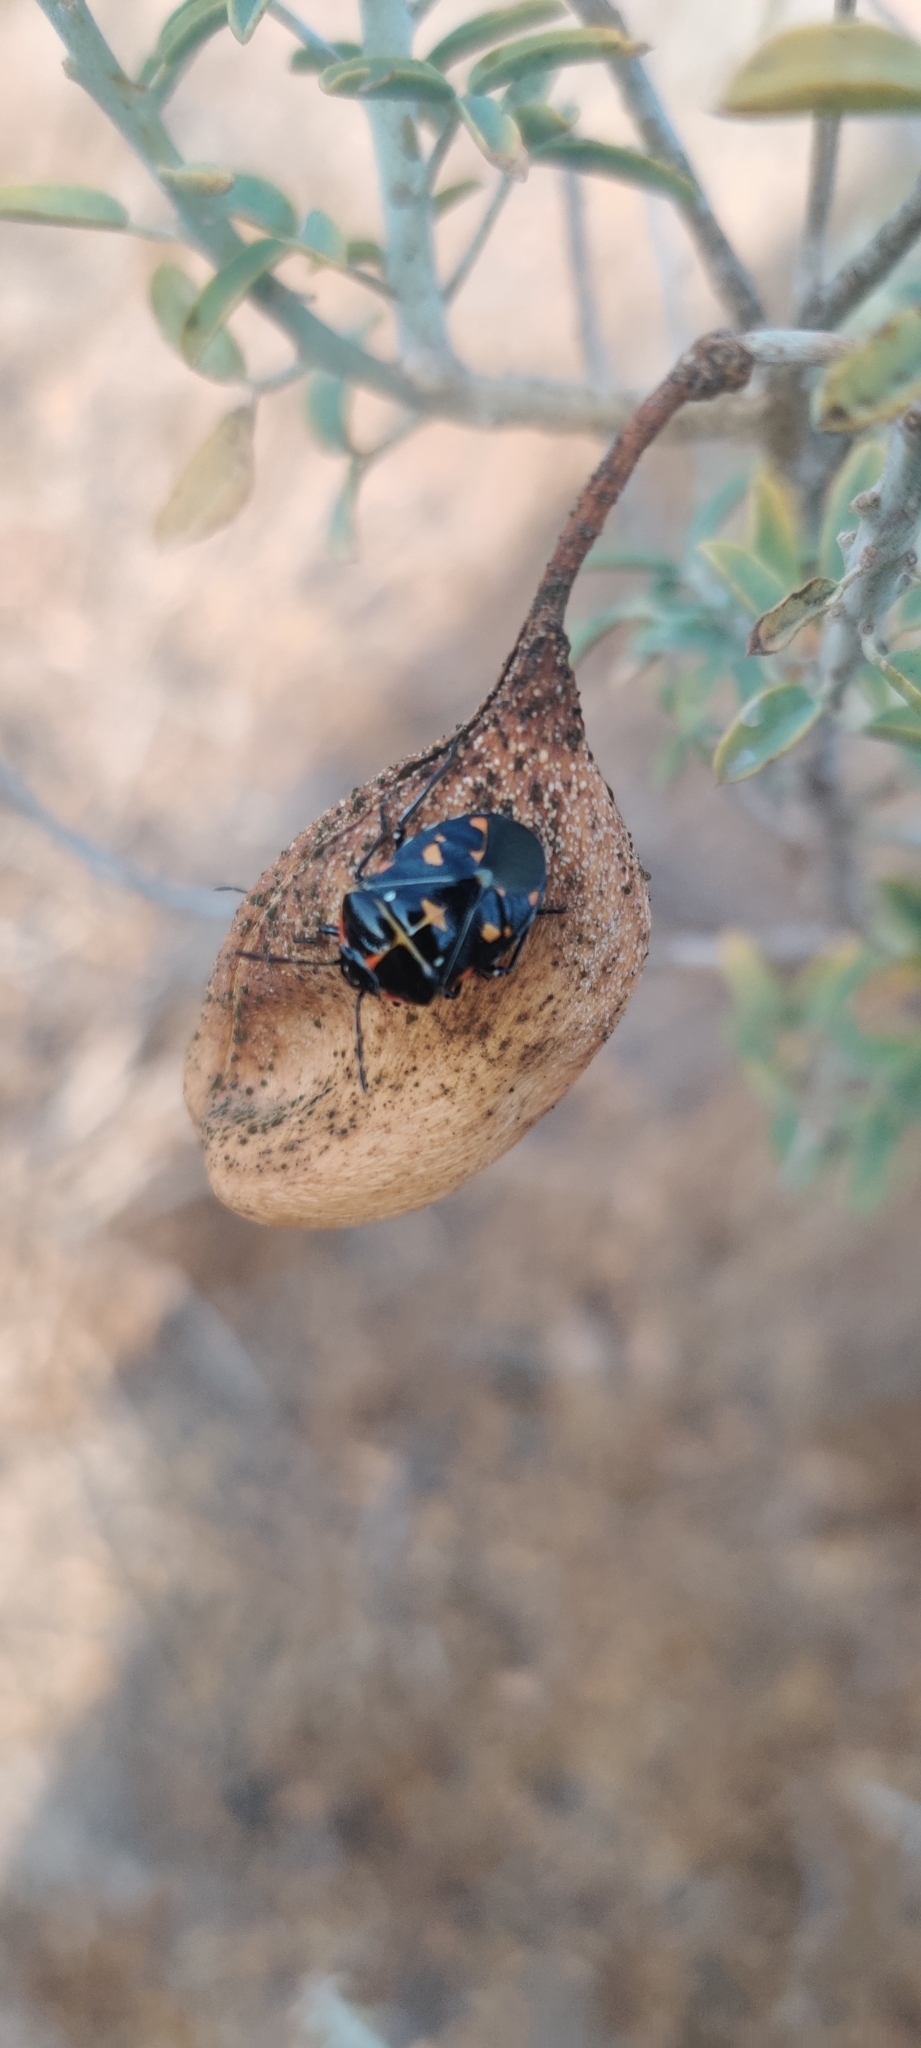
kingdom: Animalia
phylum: Arthropoda
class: Insecta
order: Hemiptera
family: Pentatomidae
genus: Murgantia
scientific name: Murgantia histrionica
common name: Harlequin bug
